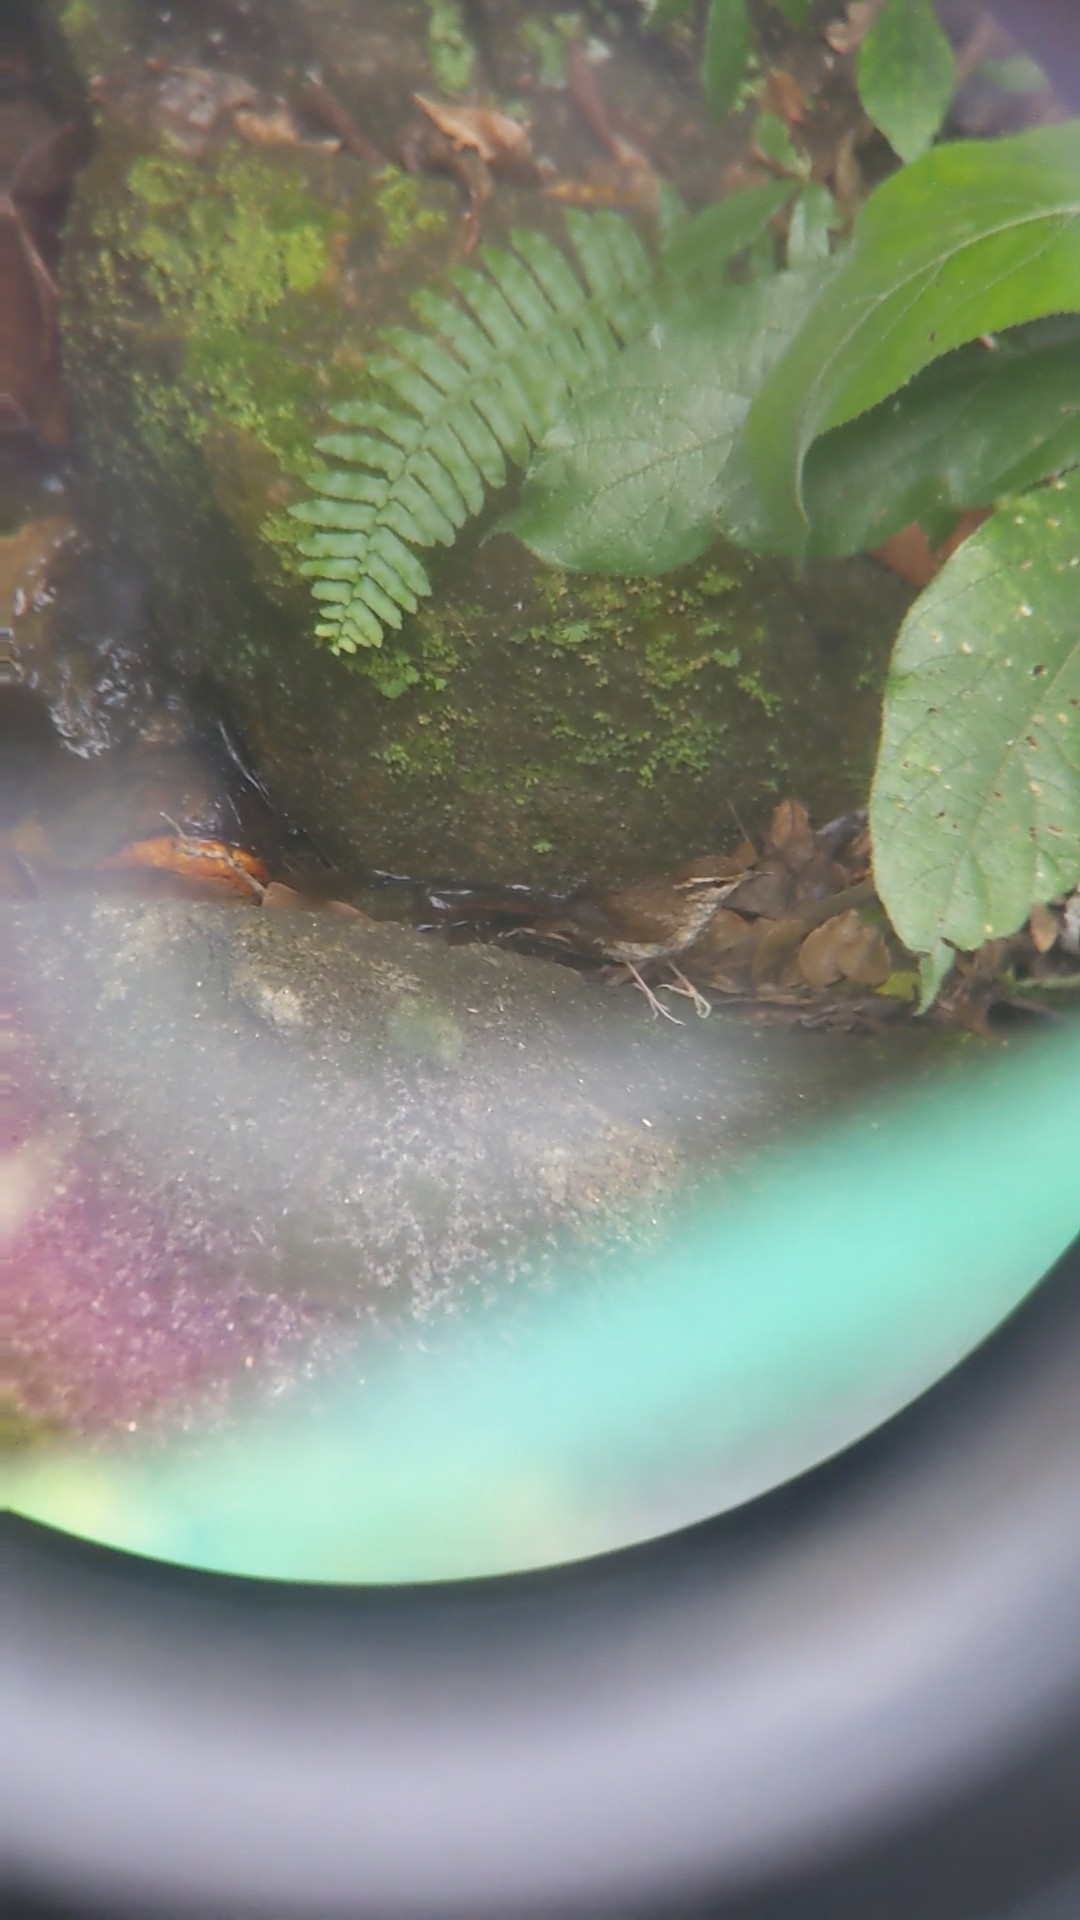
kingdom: Animalia
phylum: Chordata
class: Aves
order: Passeriformes
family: Cettiidae
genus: Urosphena
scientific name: Urosphena squameiceps
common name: Asian stubtail
